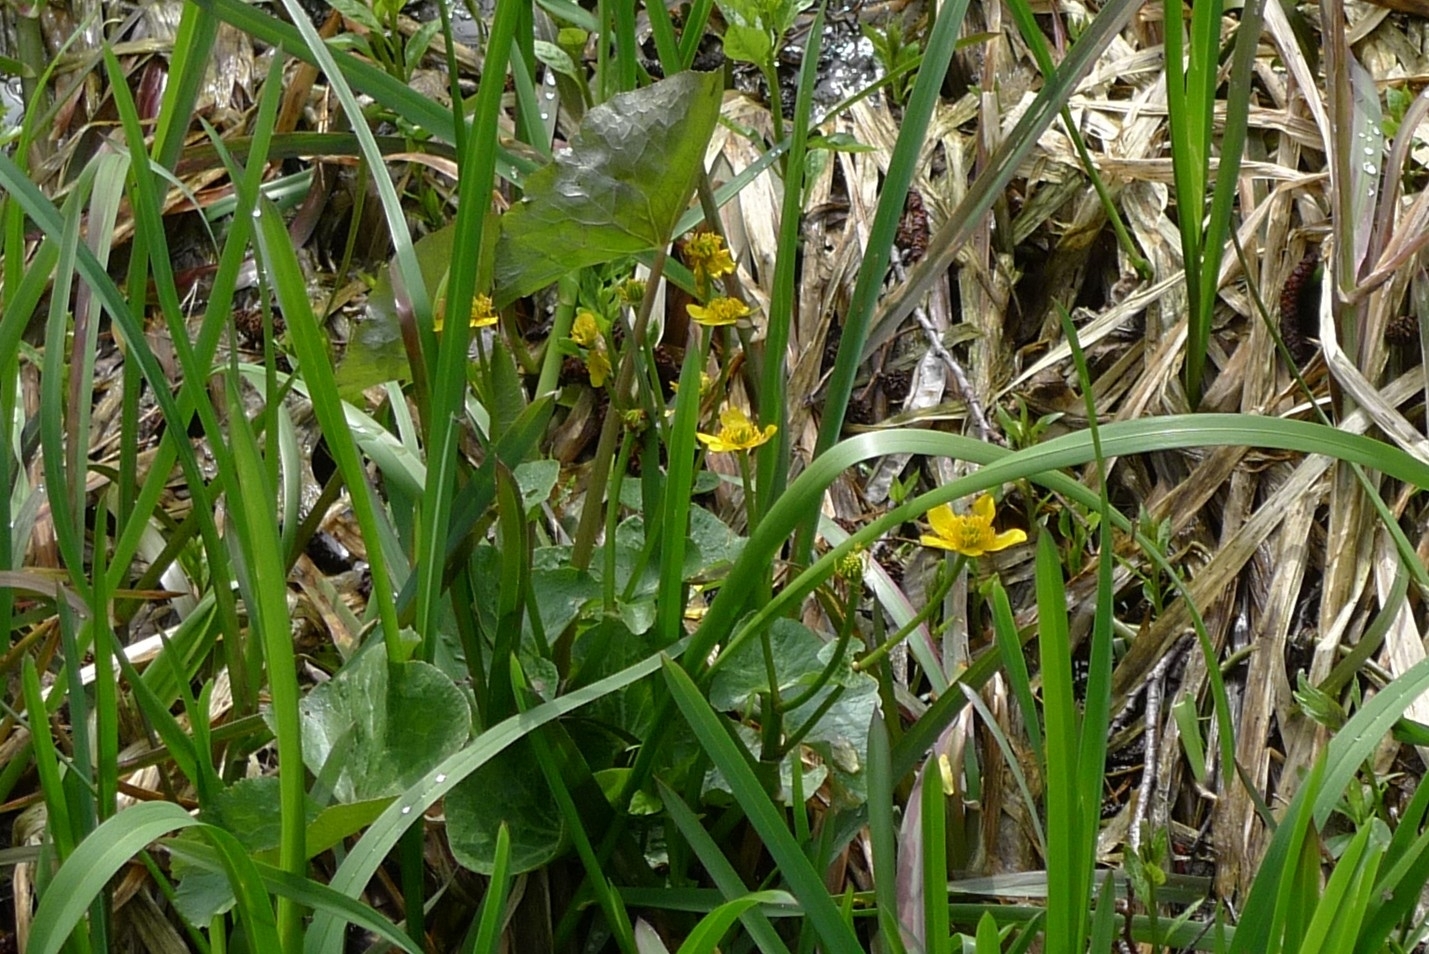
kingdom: Plantae
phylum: Tracheophyta
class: Magnoliopsida
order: Ranunculales
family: Ranunculaceae
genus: Caltha
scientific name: Caltha palustris
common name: Marsh marigold
